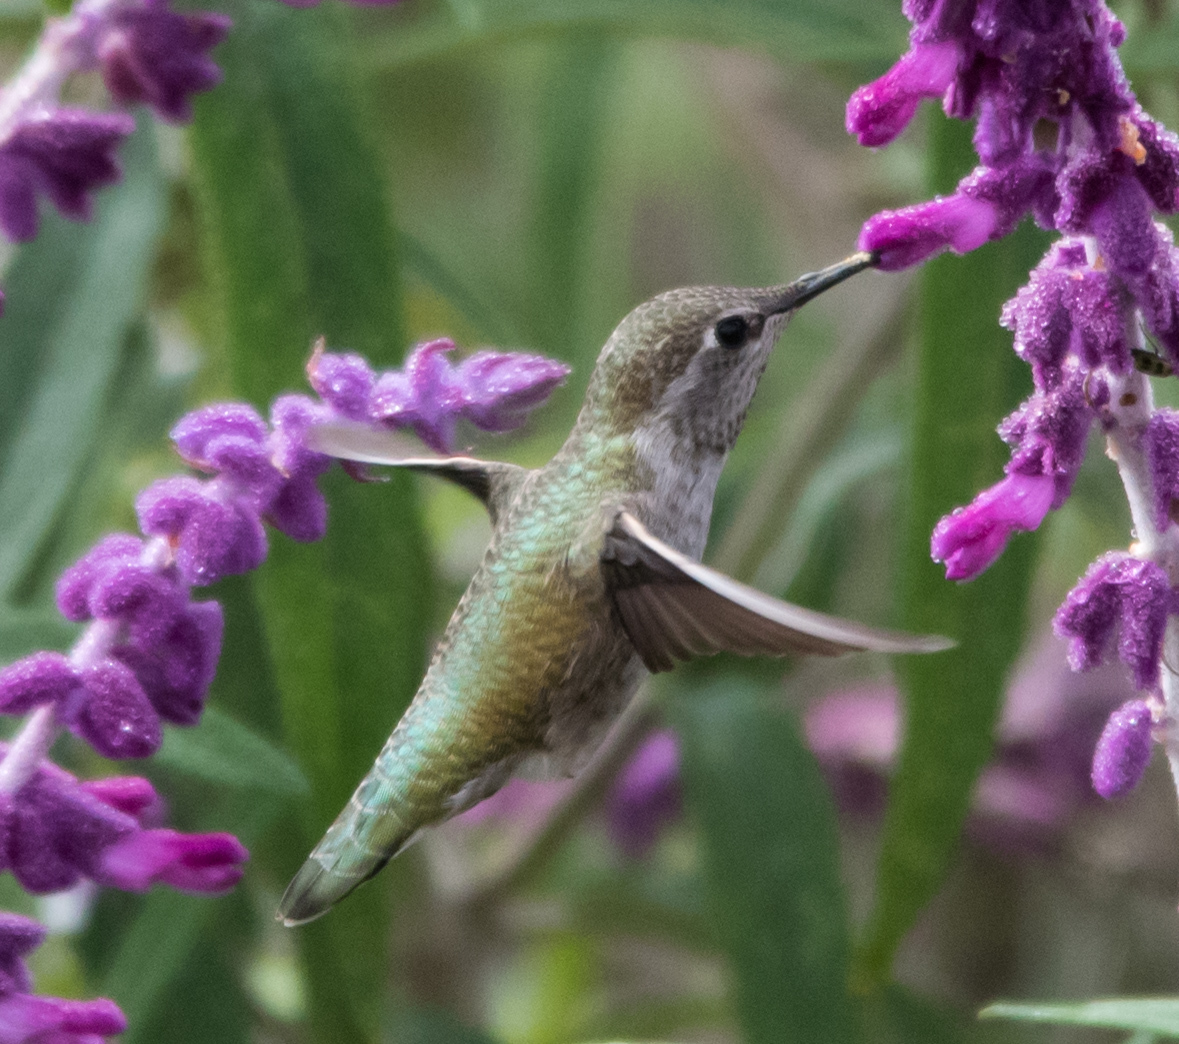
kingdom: Animalia
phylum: Chordata
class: Aves
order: Apodiformes
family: Trochilidae
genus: Calypte
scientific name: Calypte anna
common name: Anna's hummingbird
